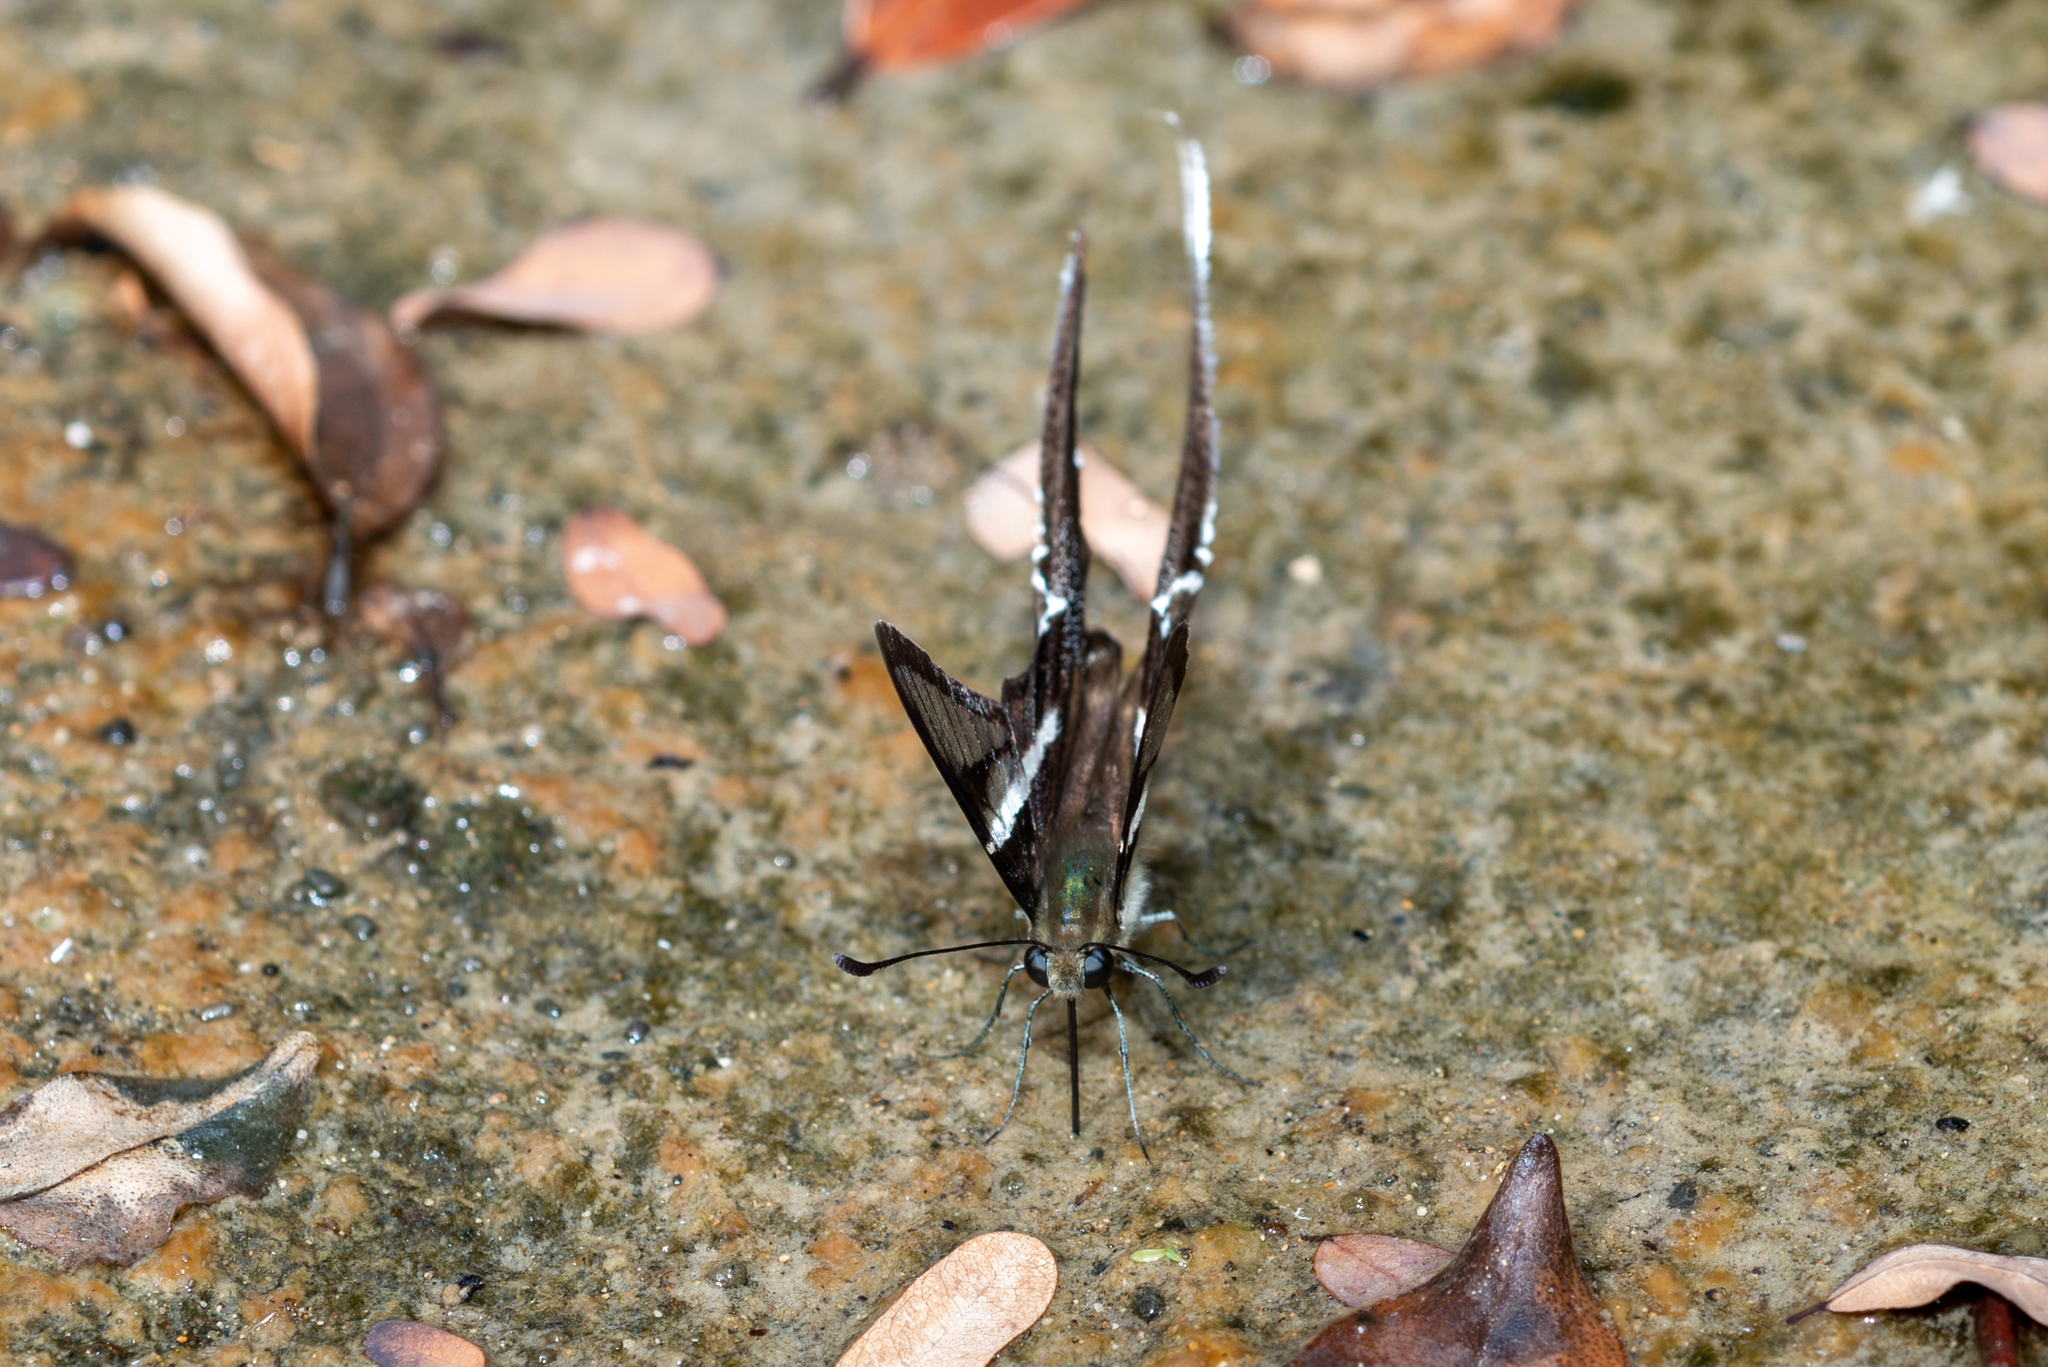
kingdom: Animalia
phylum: Arthropoda
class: Insecta
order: Lepidoptera
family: Papilionidae
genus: Lamproptera
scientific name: Lamproptera curius
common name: White dragontail
